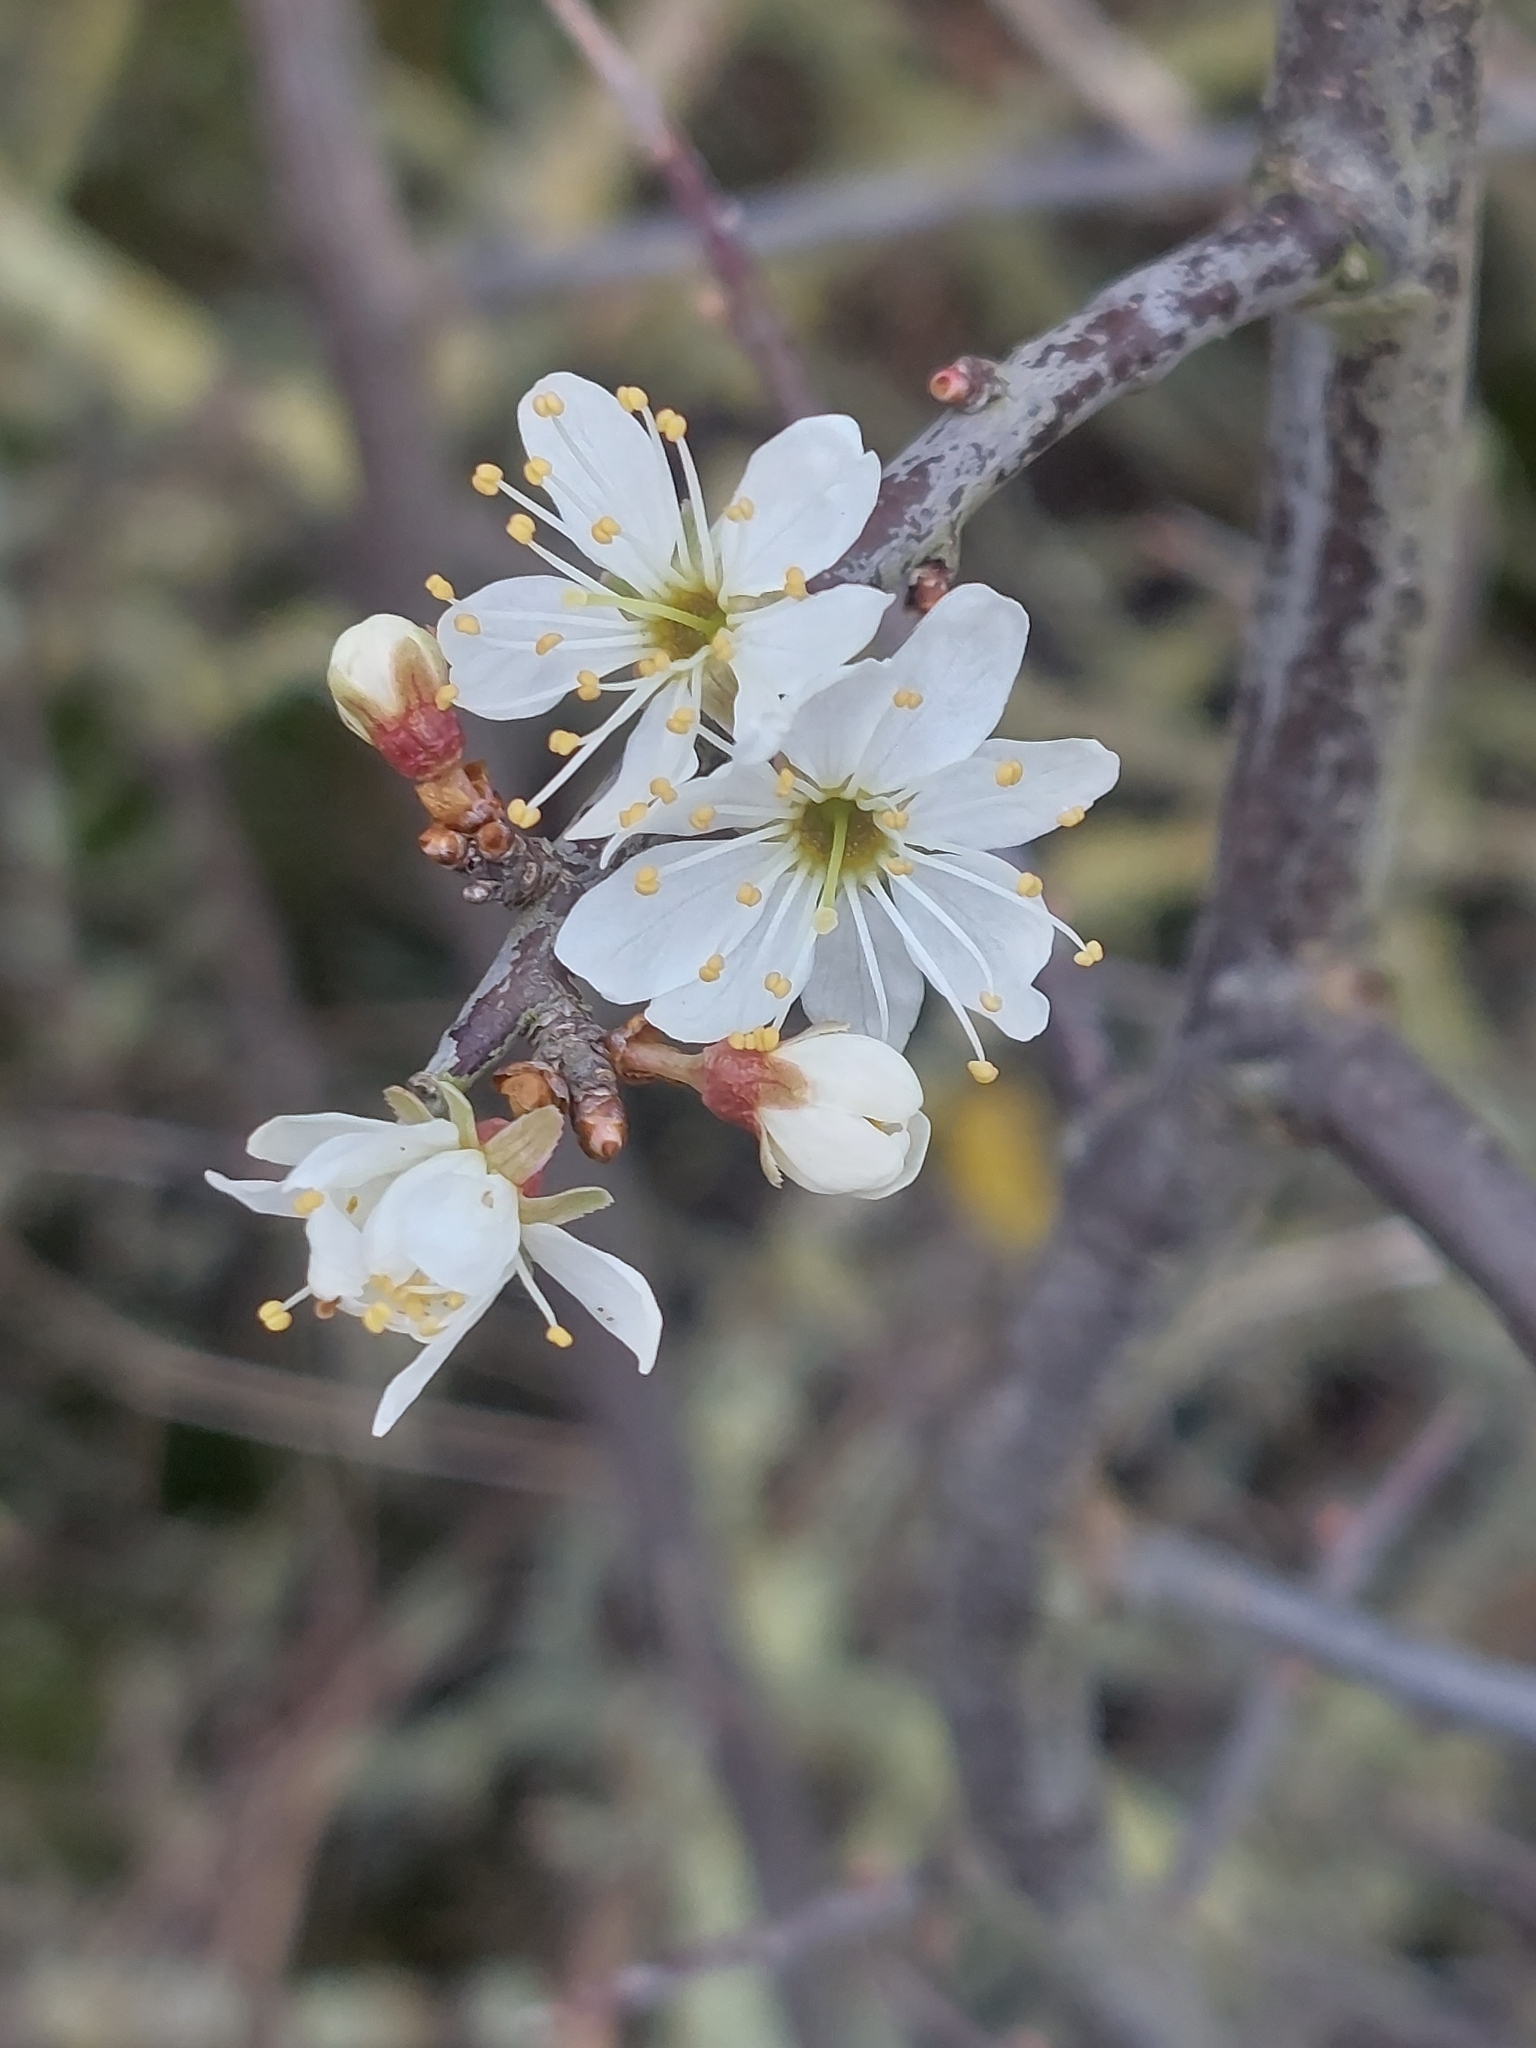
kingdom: Plantae
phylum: Tracheophyta
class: Magnoliopsida
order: Rosales
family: Rosaceae
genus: Prunus
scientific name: Prunus spinosa
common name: Blackthorn
